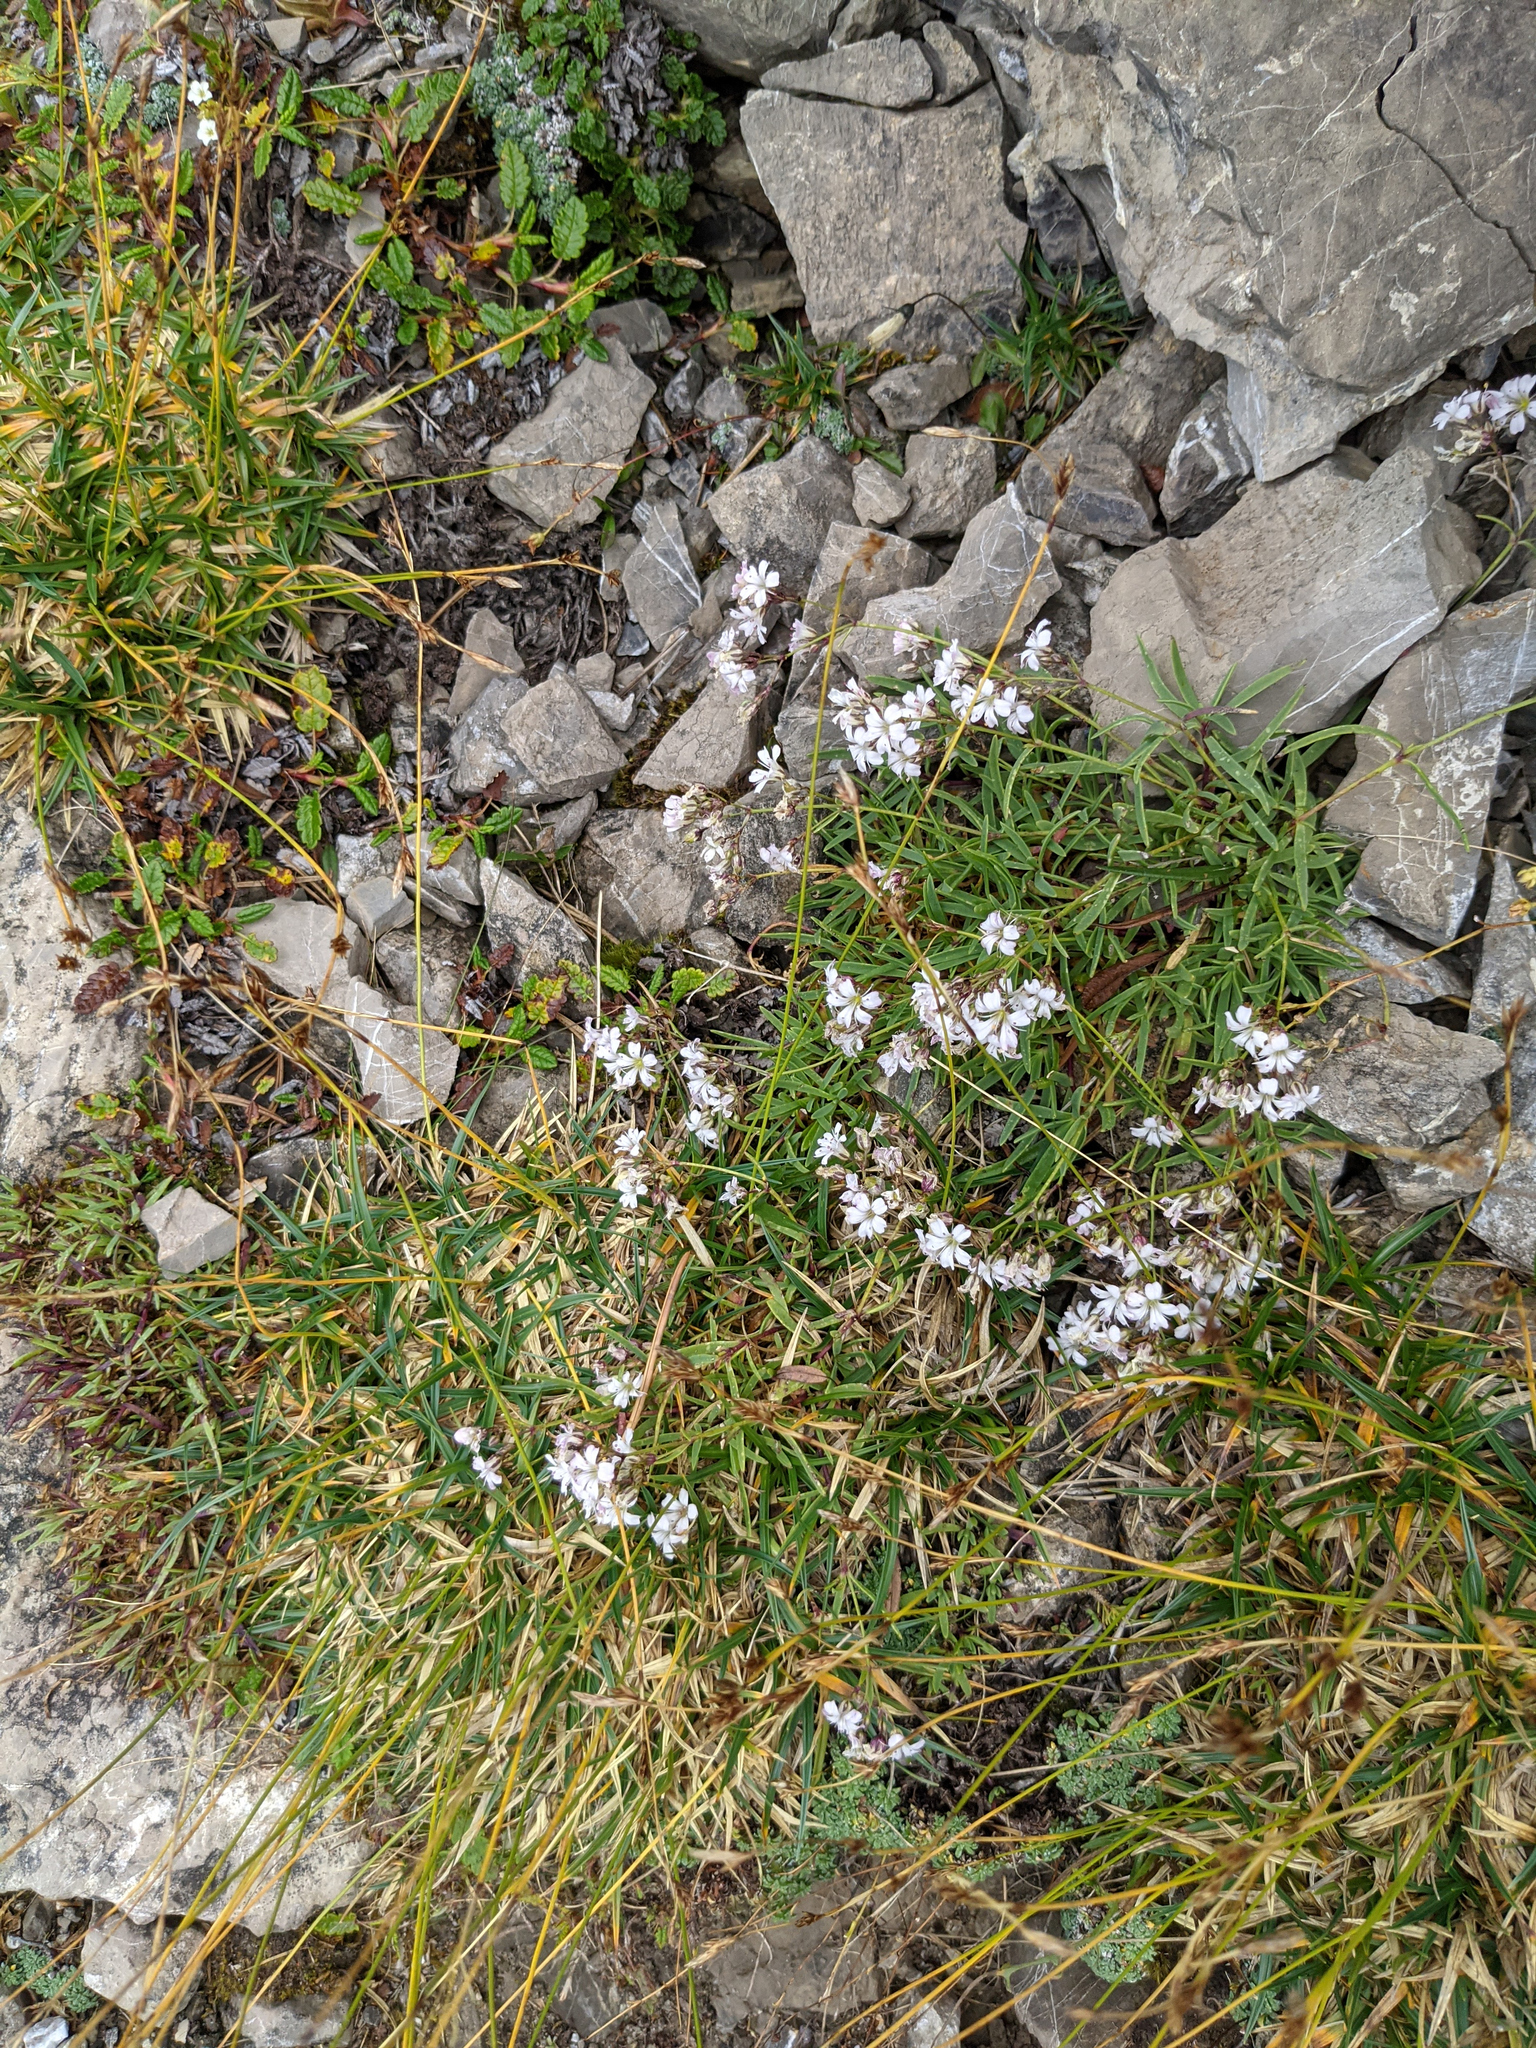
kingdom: Plantae
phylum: Tracheophyta
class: Magnoliopsida
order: Caryophyllales
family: Caryophyllaceae
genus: Gypsophila
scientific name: Gypsophila repens
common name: Creeping baby's-breath
